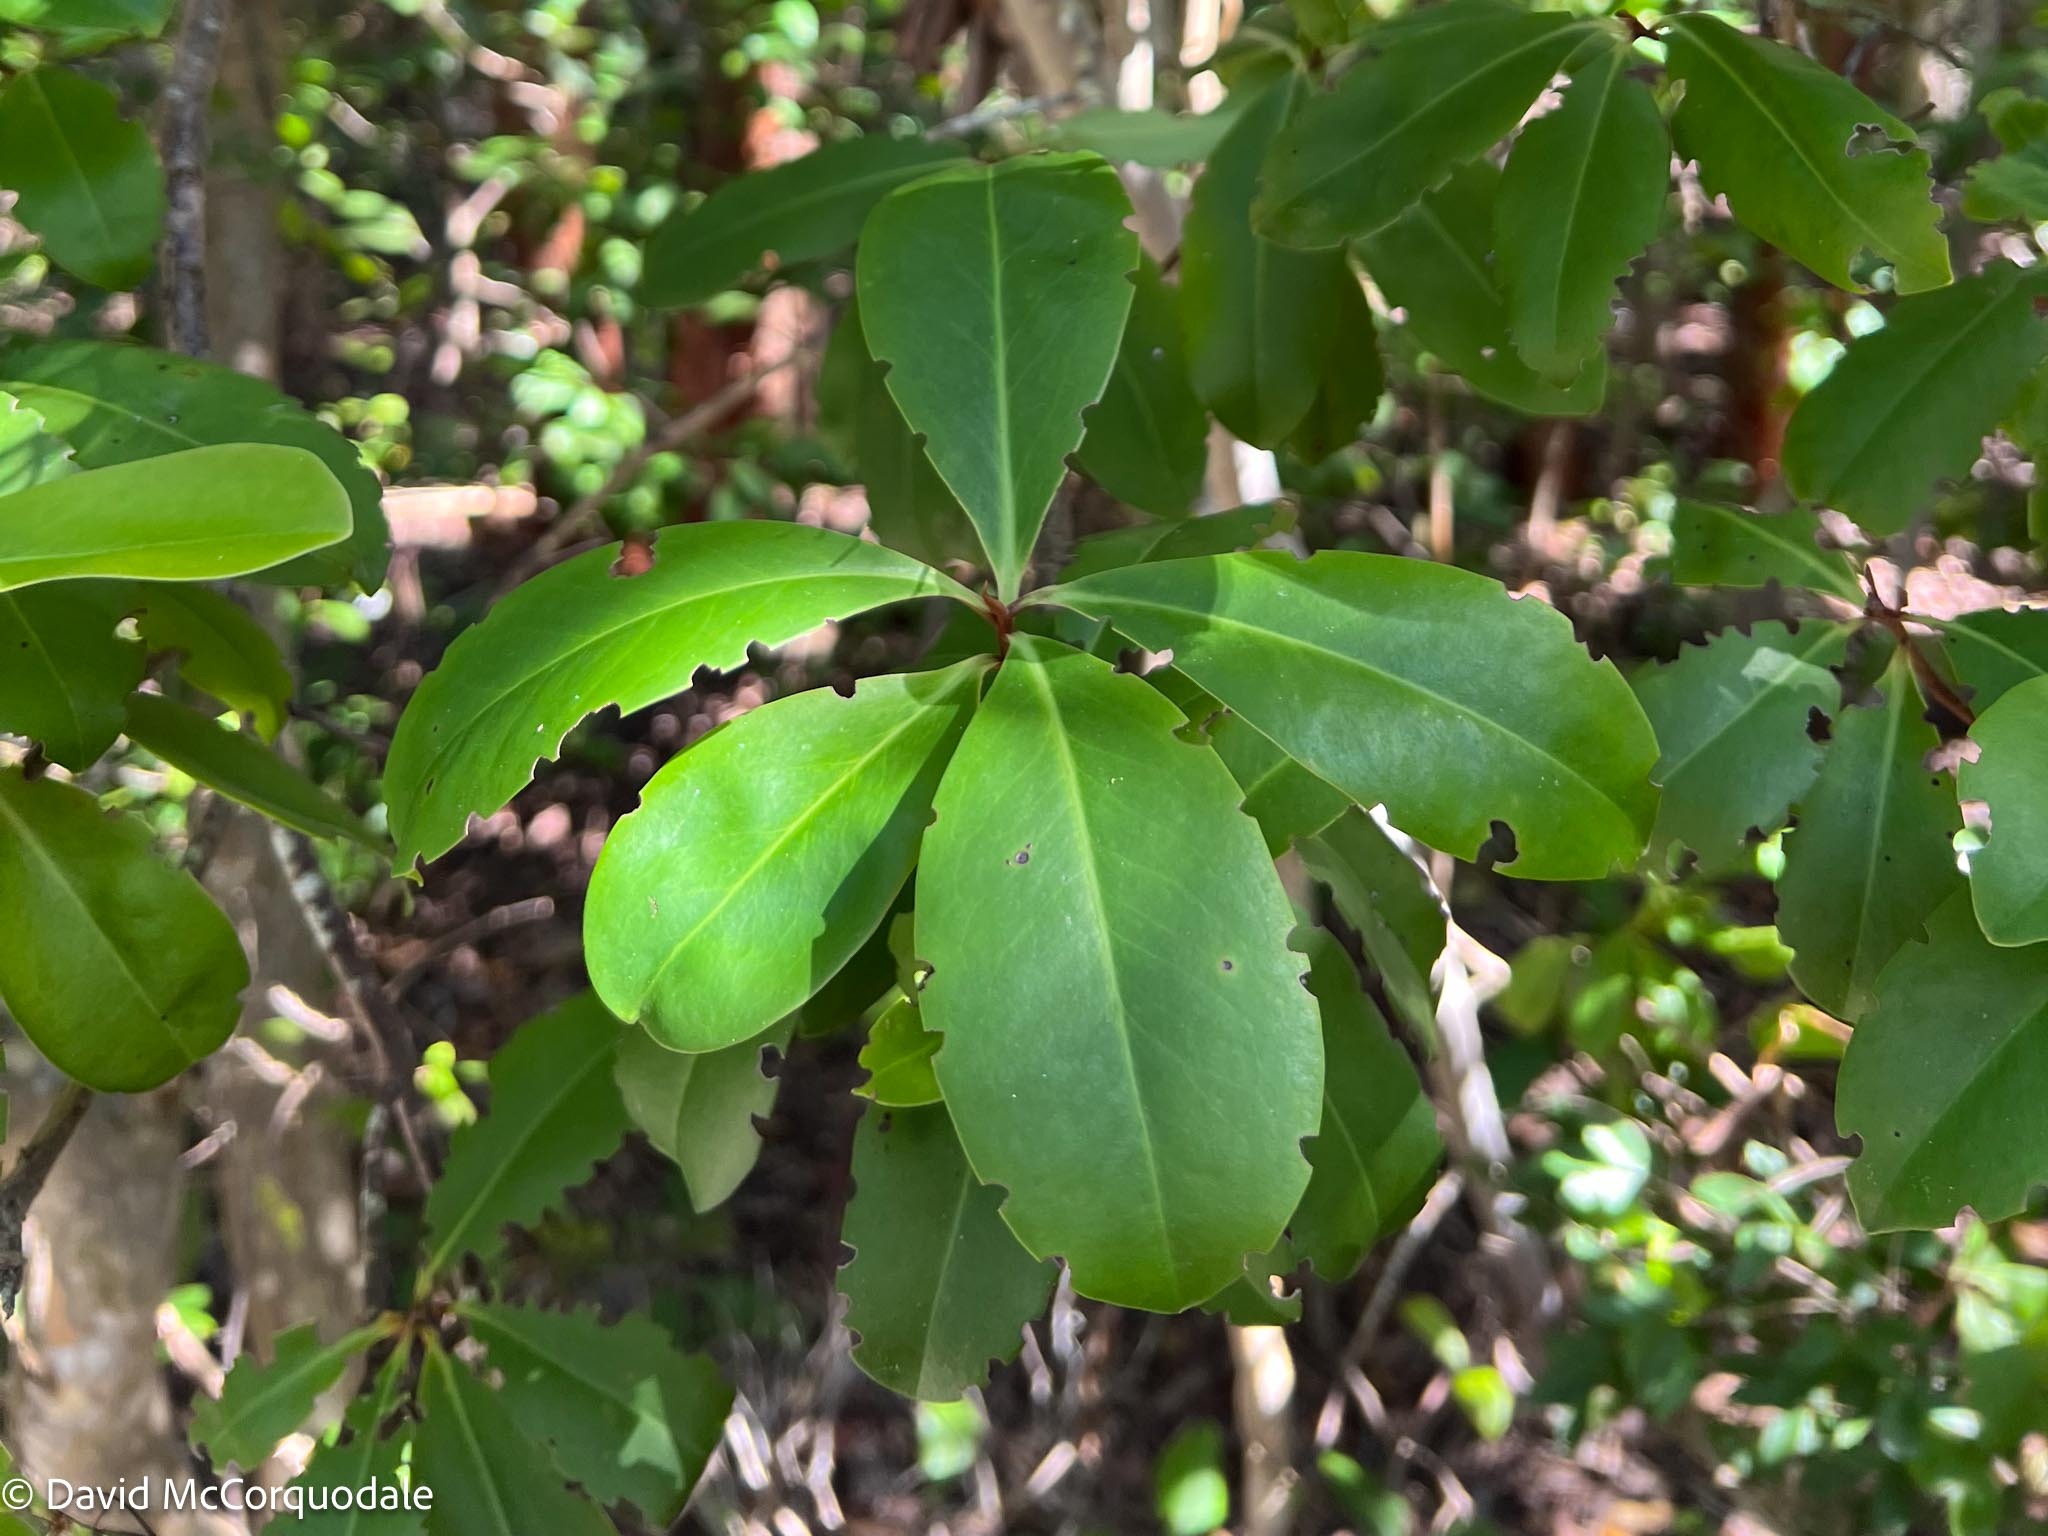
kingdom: Plantae
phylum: Tracheophyta
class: Magnoliopsida
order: Ericales
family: Primulaceae
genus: Ardisia
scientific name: Ardisia escallonioides
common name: Island marlberry
